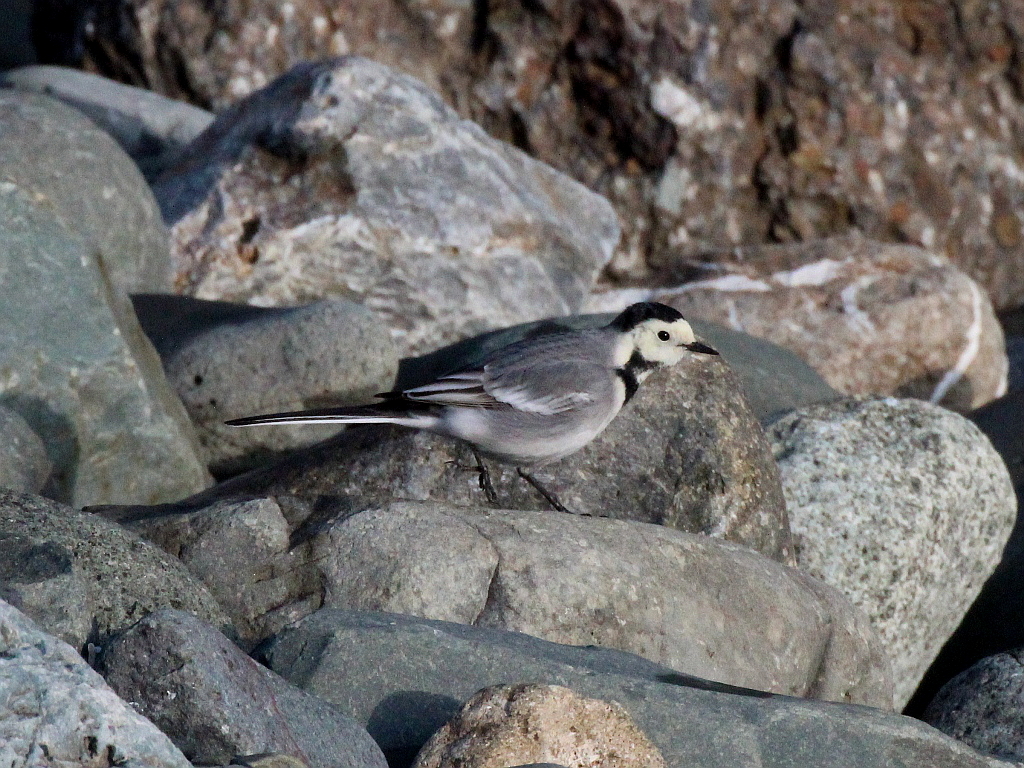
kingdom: Animalia
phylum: Chordata
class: Aves
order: Passeriformes
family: Motacillidae
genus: Motacilla
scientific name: Motacilla alba
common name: White wagtail
